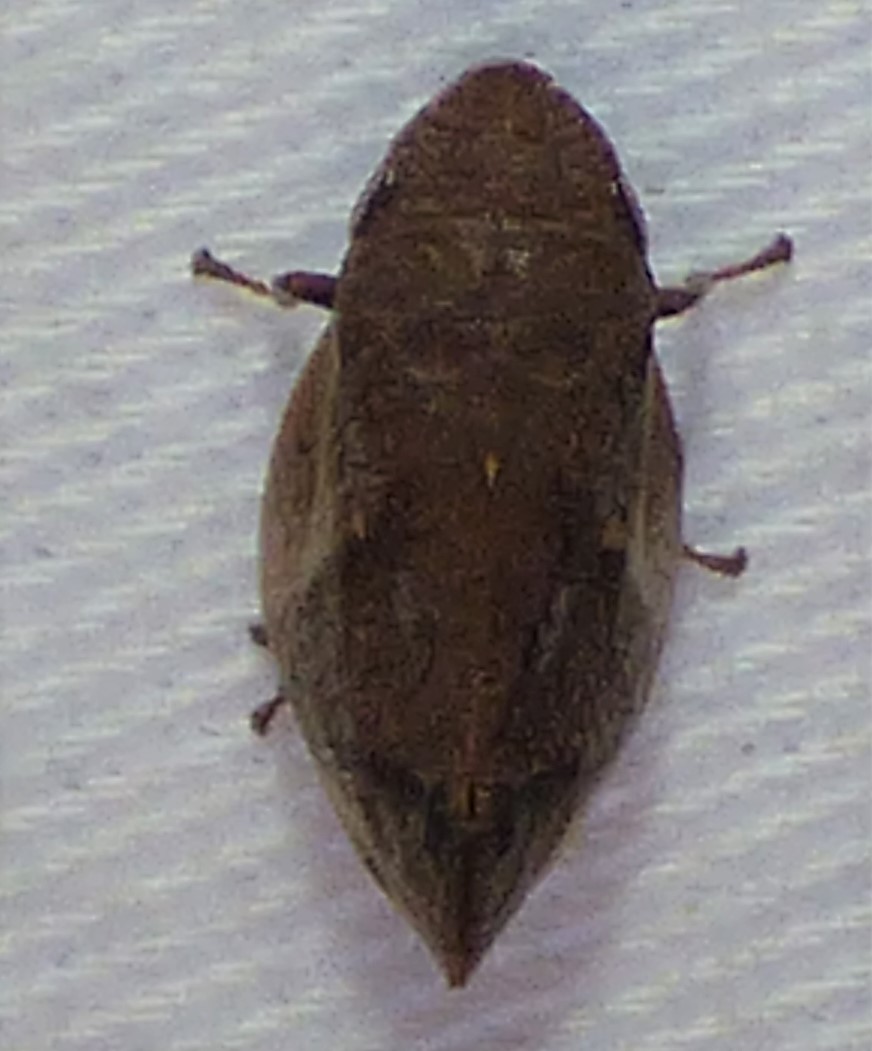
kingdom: Animalia
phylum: Arthropoda
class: Insecta
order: Hemiptera
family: Aphrophoridae
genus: Lepyronia
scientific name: Lepyronia quadrangularis
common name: Diamond-backed spittlebug
